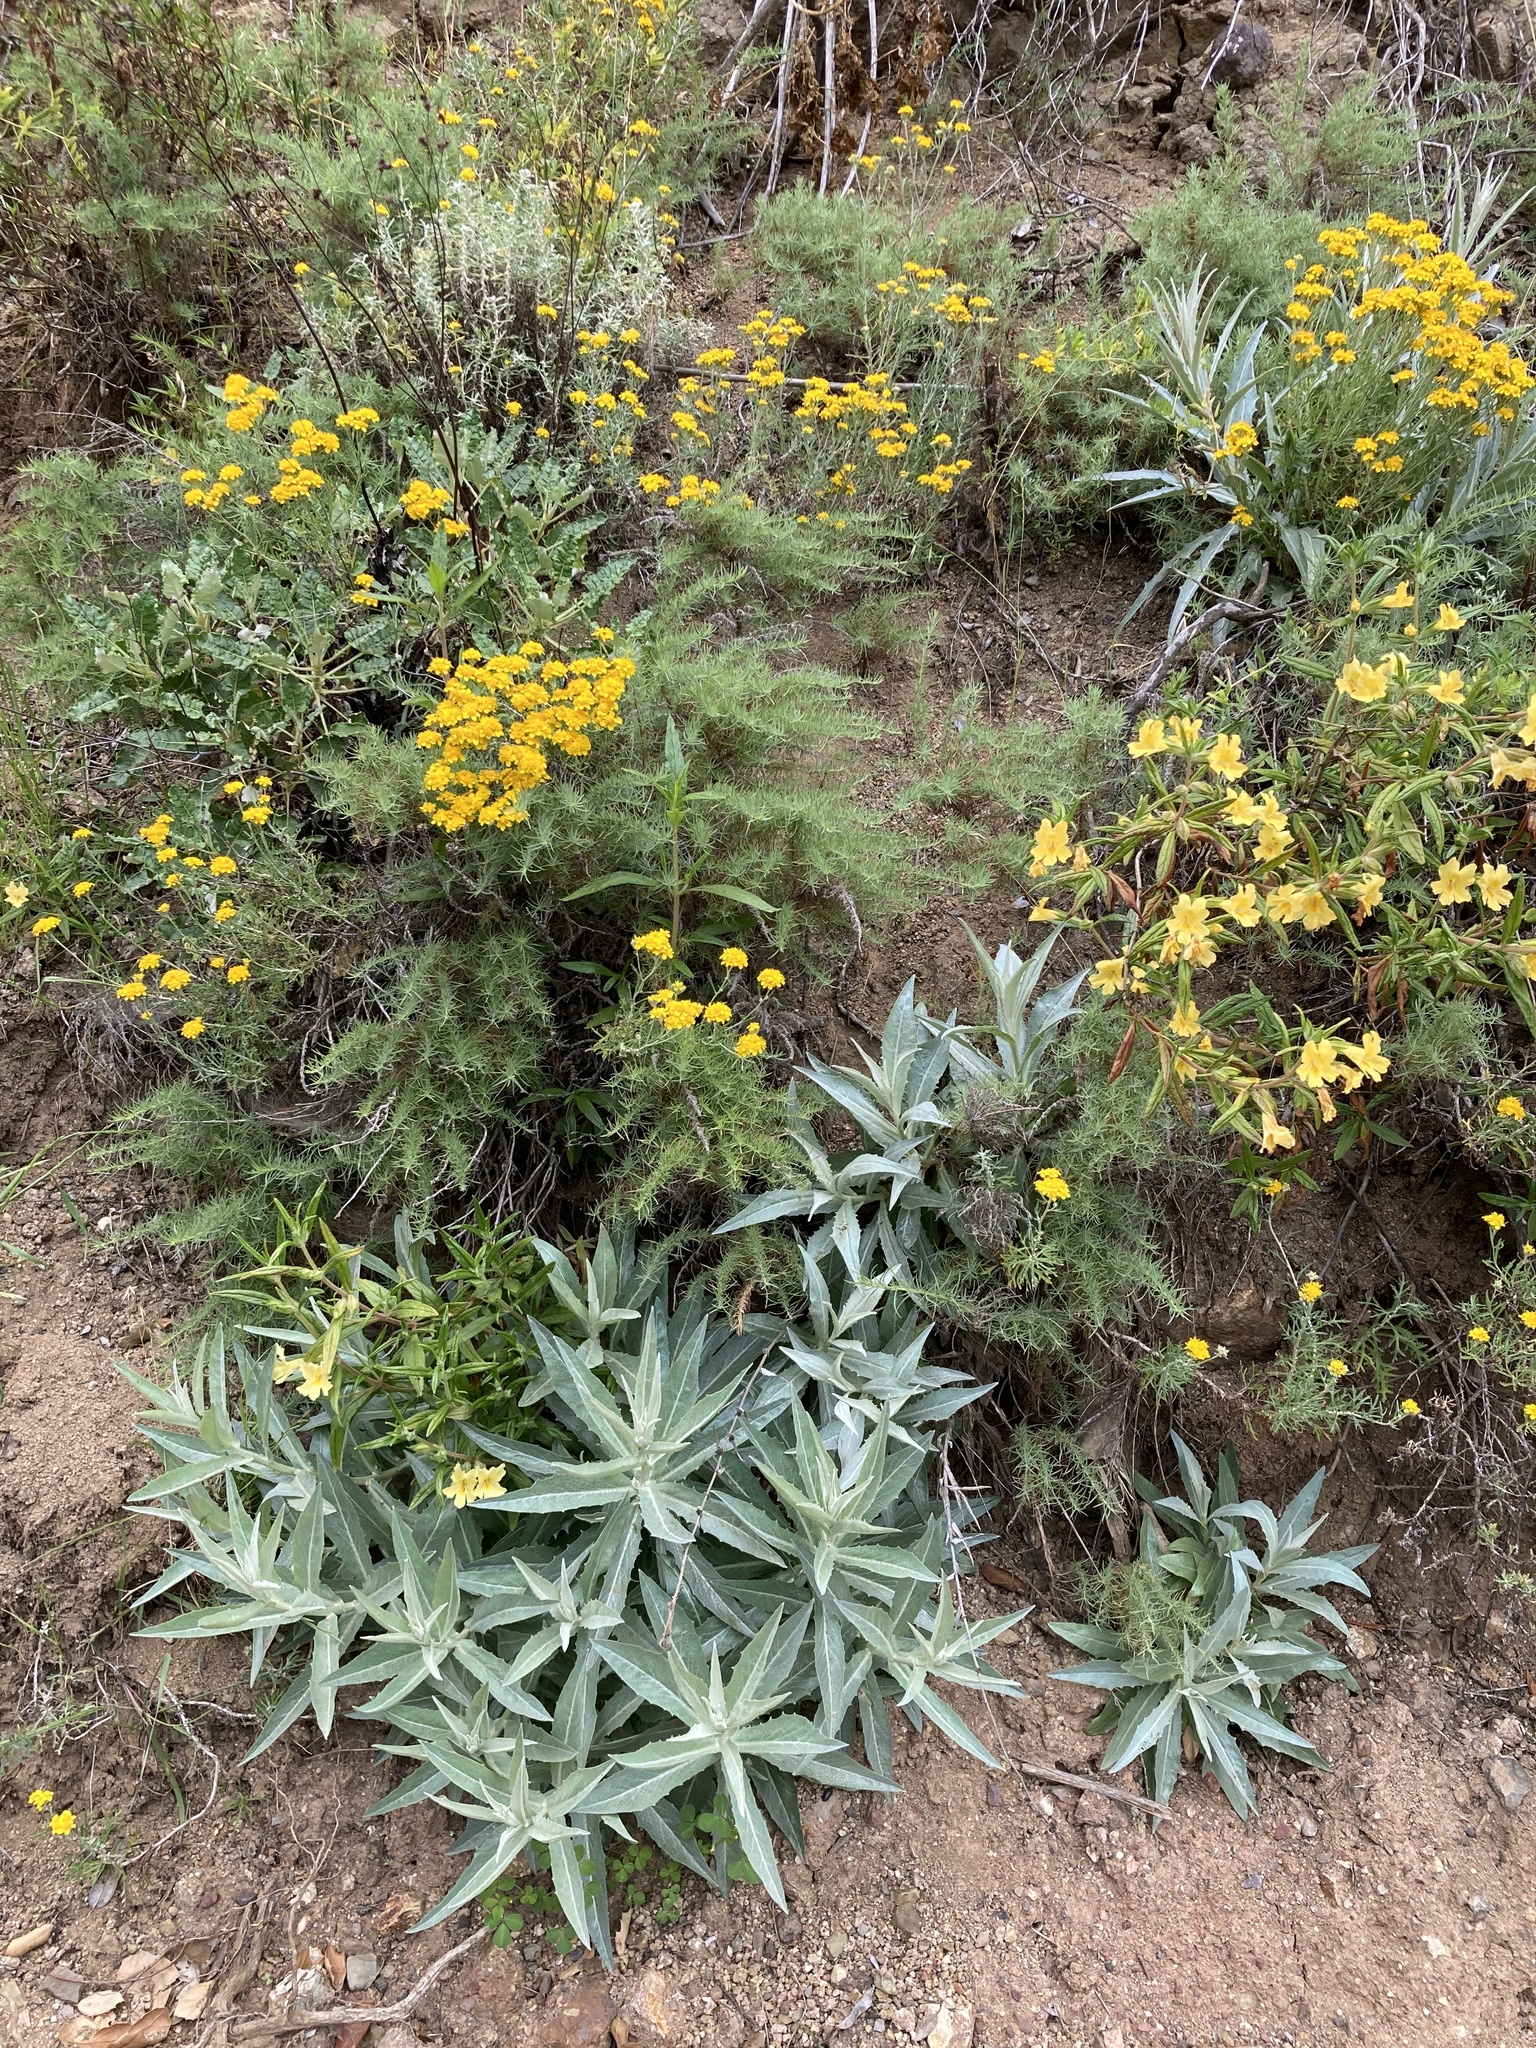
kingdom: Plantae
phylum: Tracheophyta
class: Magnoliopsida
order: Asterales
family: Asteraceae
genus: Stephanomeria
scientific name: Stephanomeria cichoriacea
